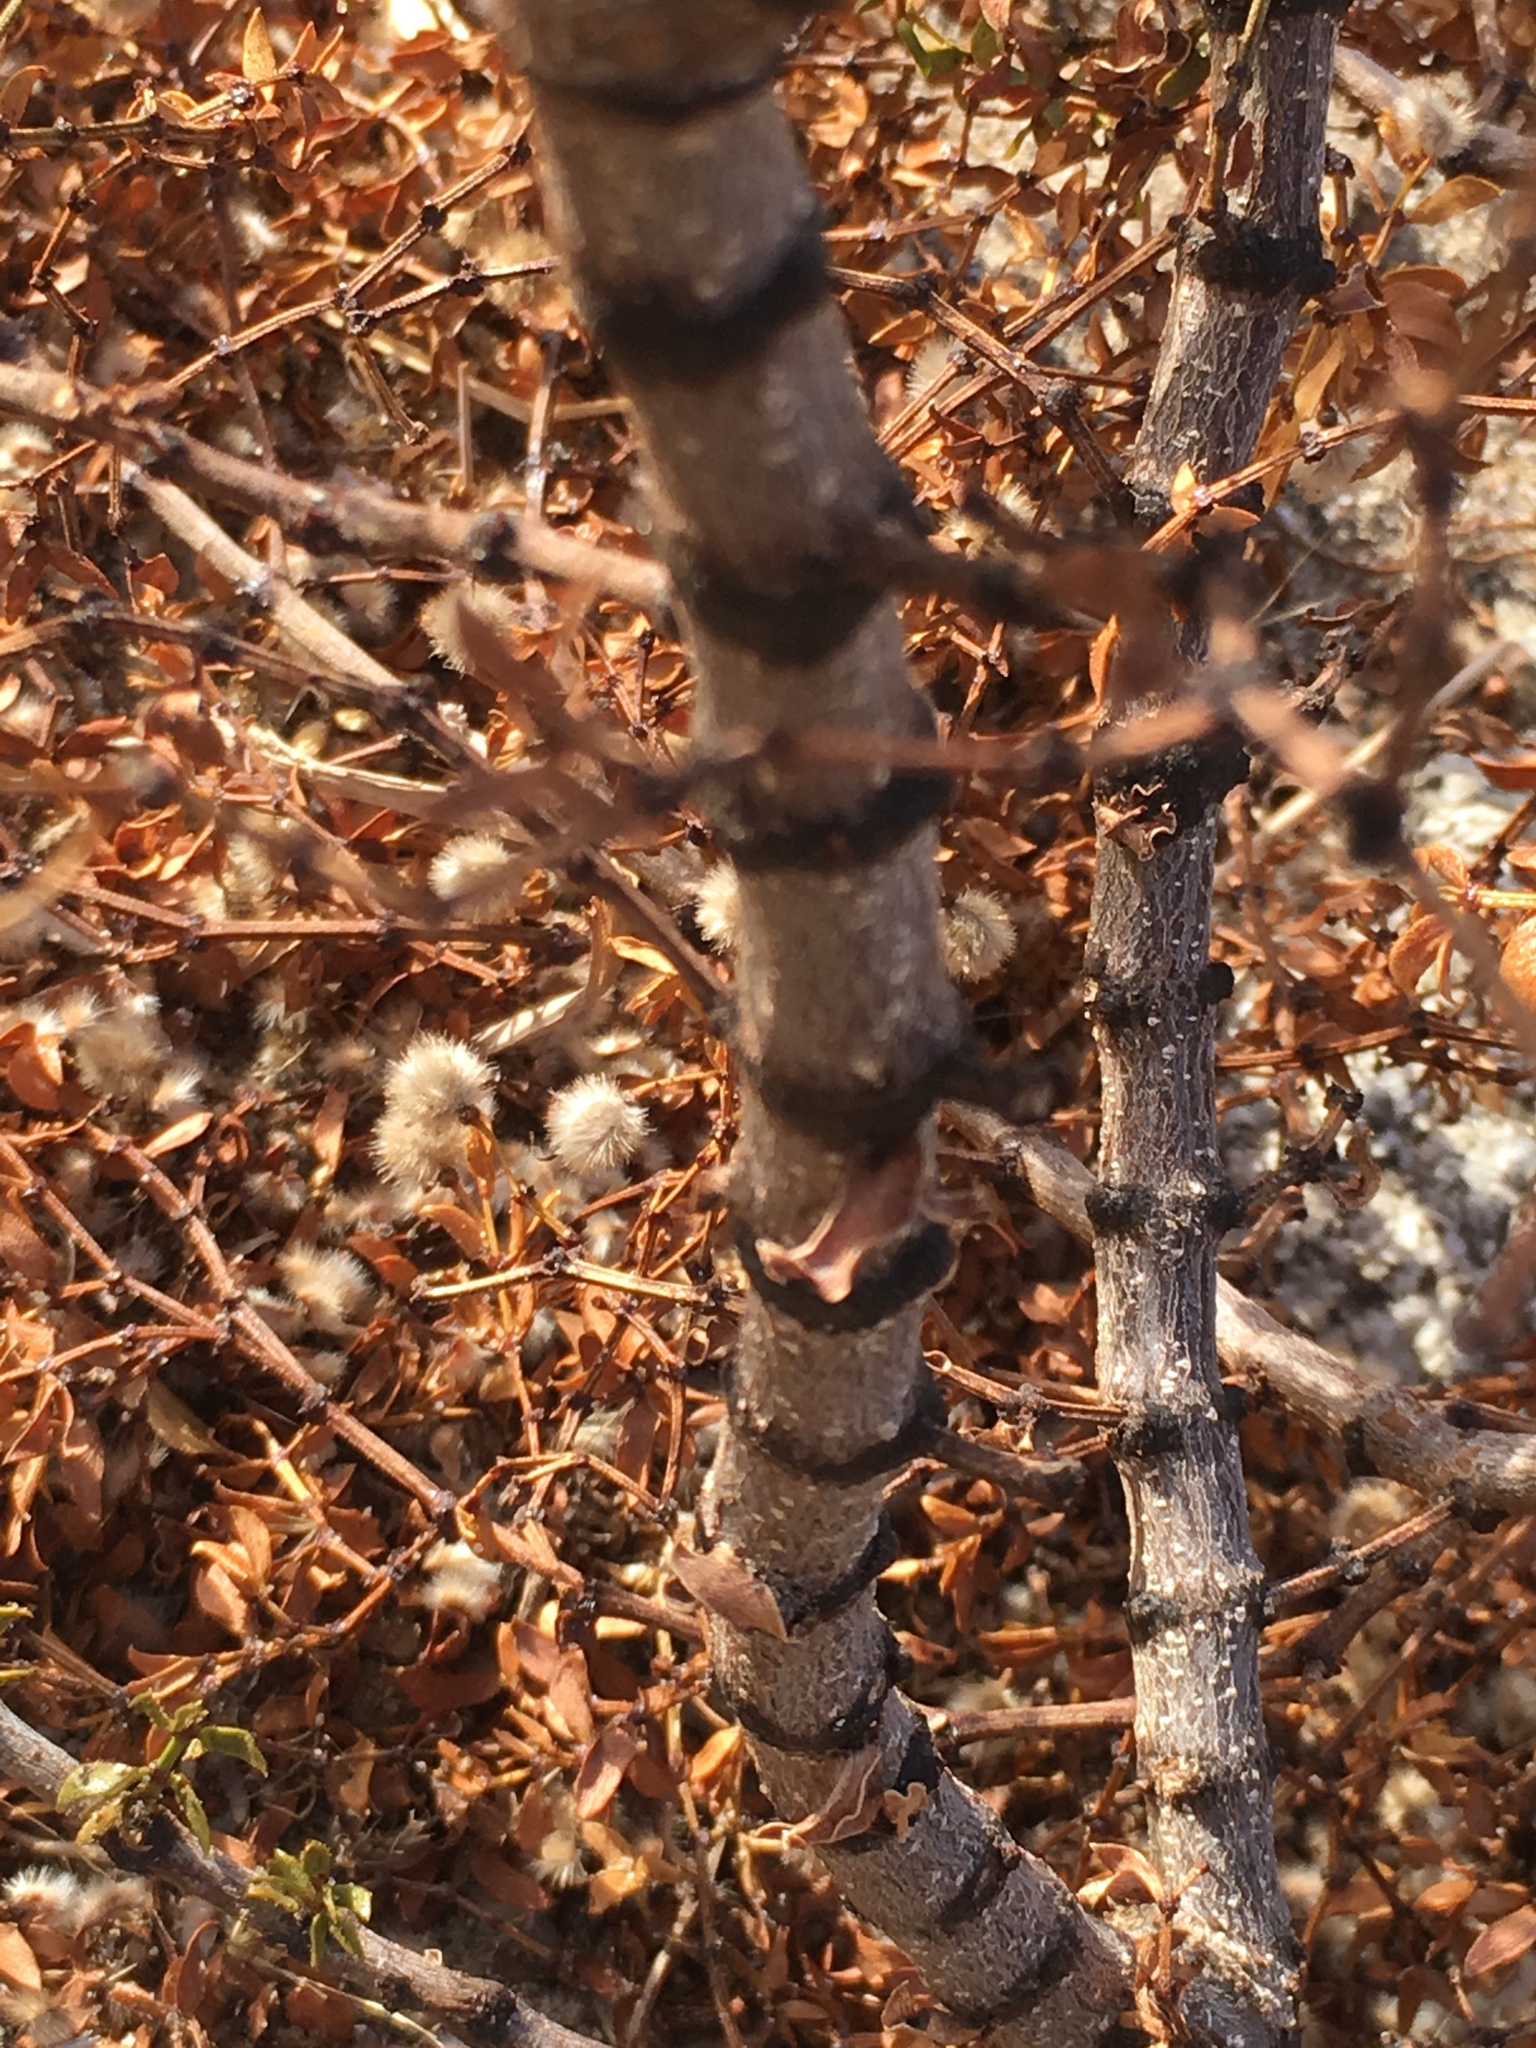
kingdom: Plantae
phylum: Tracheophyta
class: Magnoliopsida
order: Zygophyllales
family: Zygophyllaceae
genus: Larrea
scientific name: Larrea tridentata
